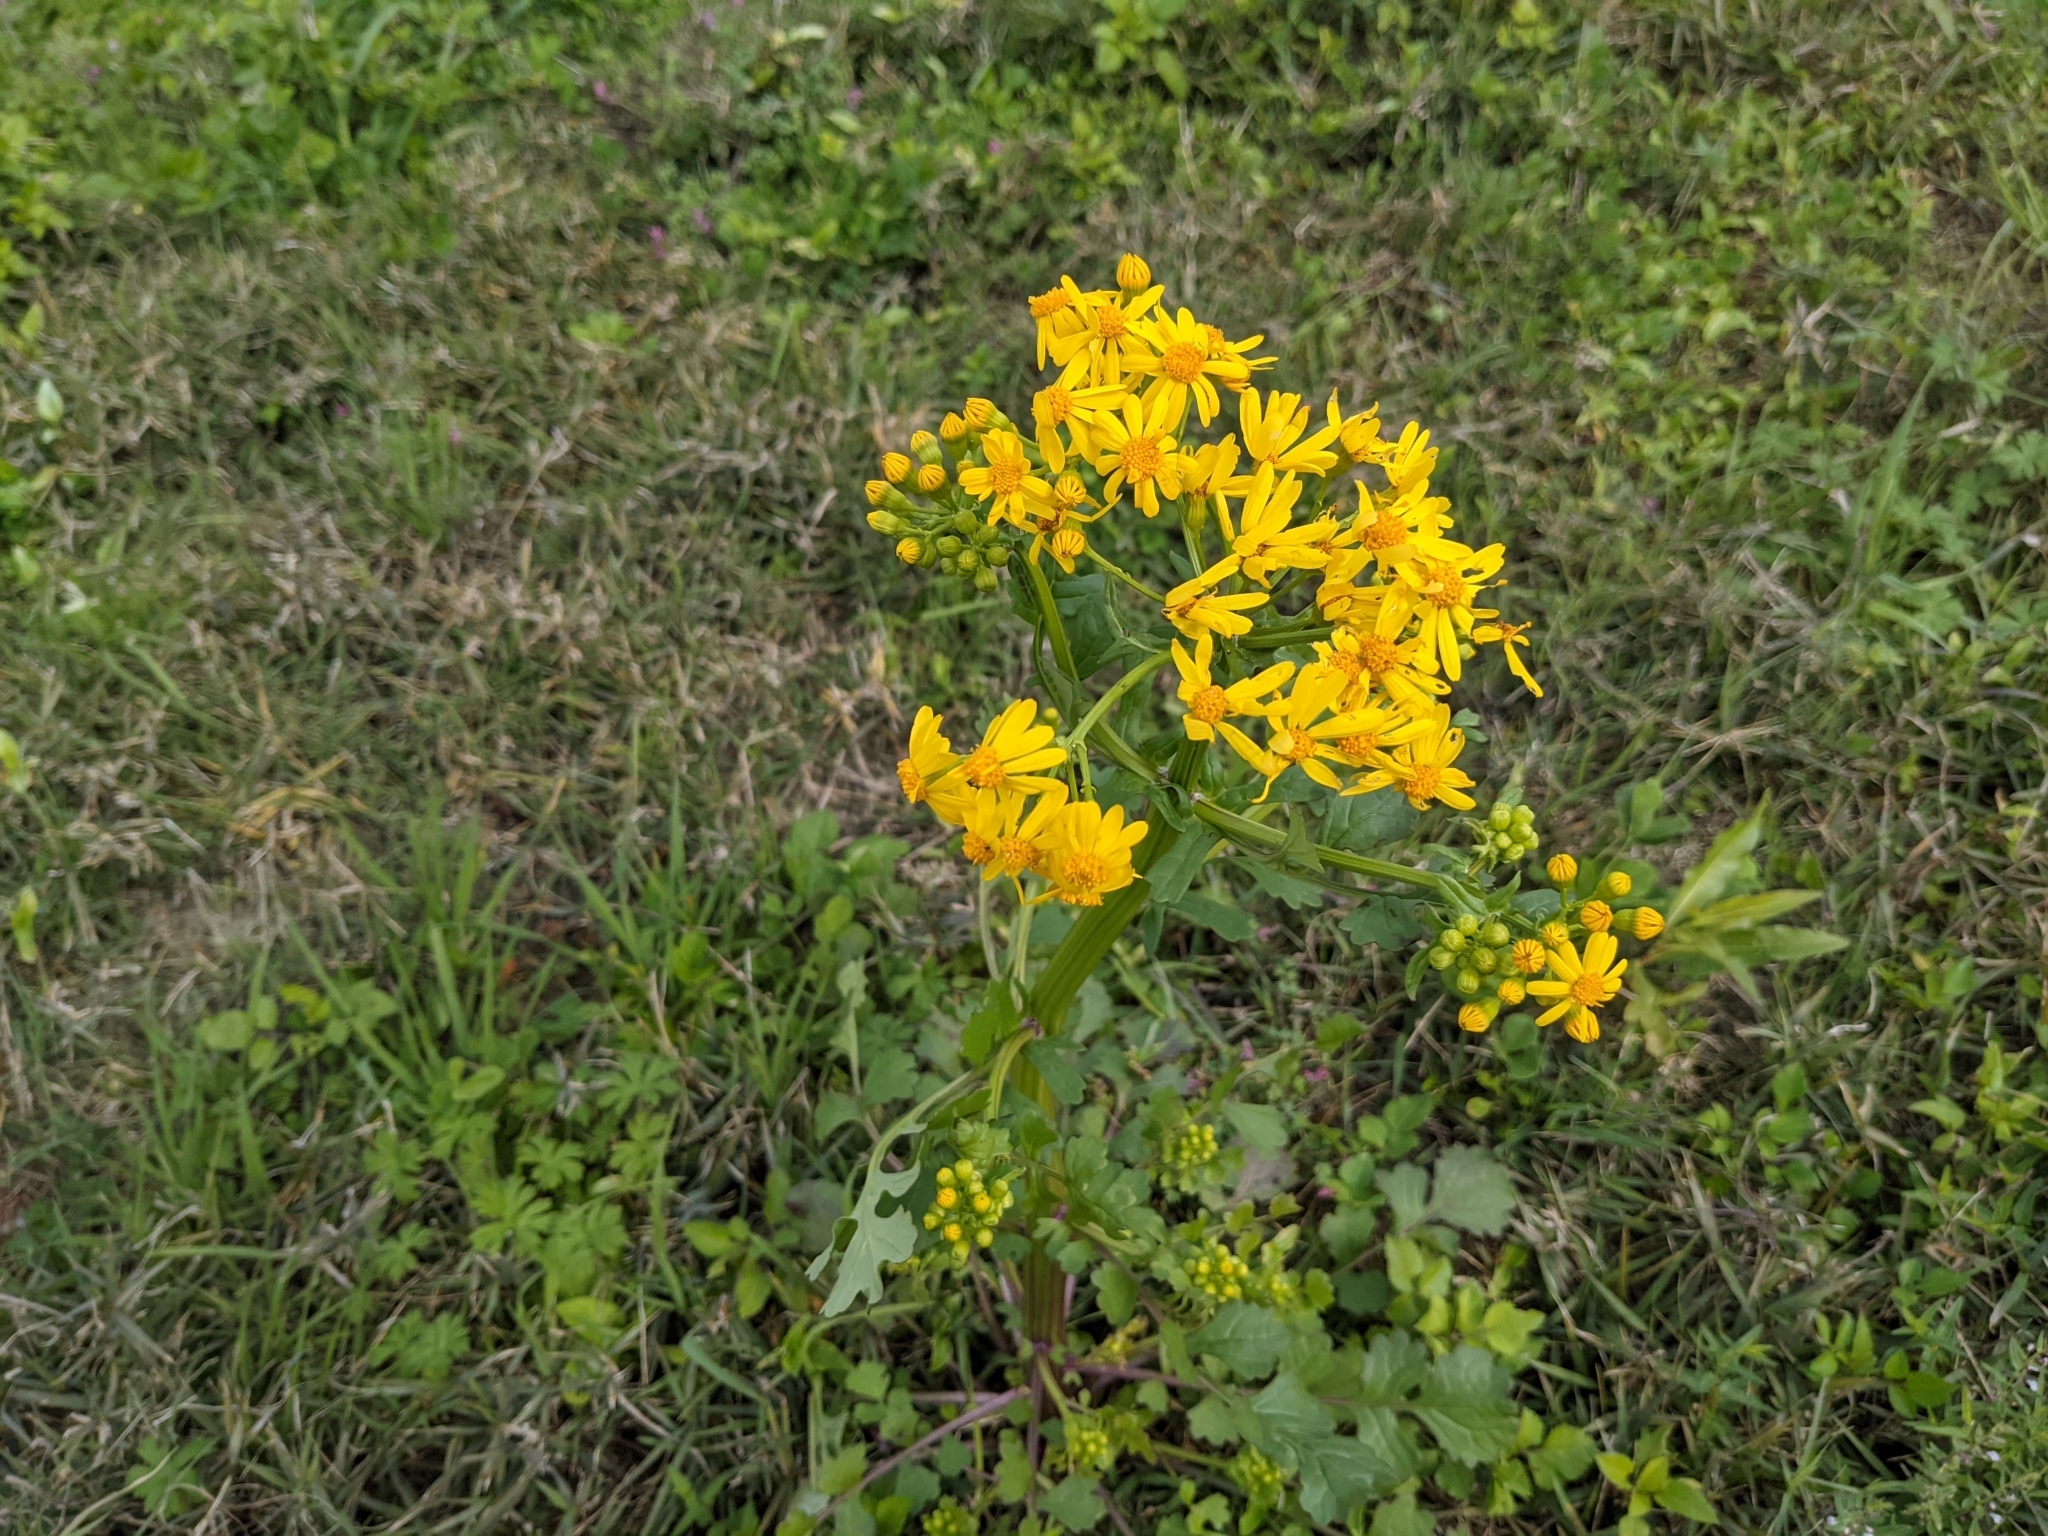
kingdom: Plantae
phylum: Tracheophyta
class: Magnoliopsida
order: Asterales
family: Asteraceae
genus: Packera
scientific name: Packera glabella
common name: Butterweed
